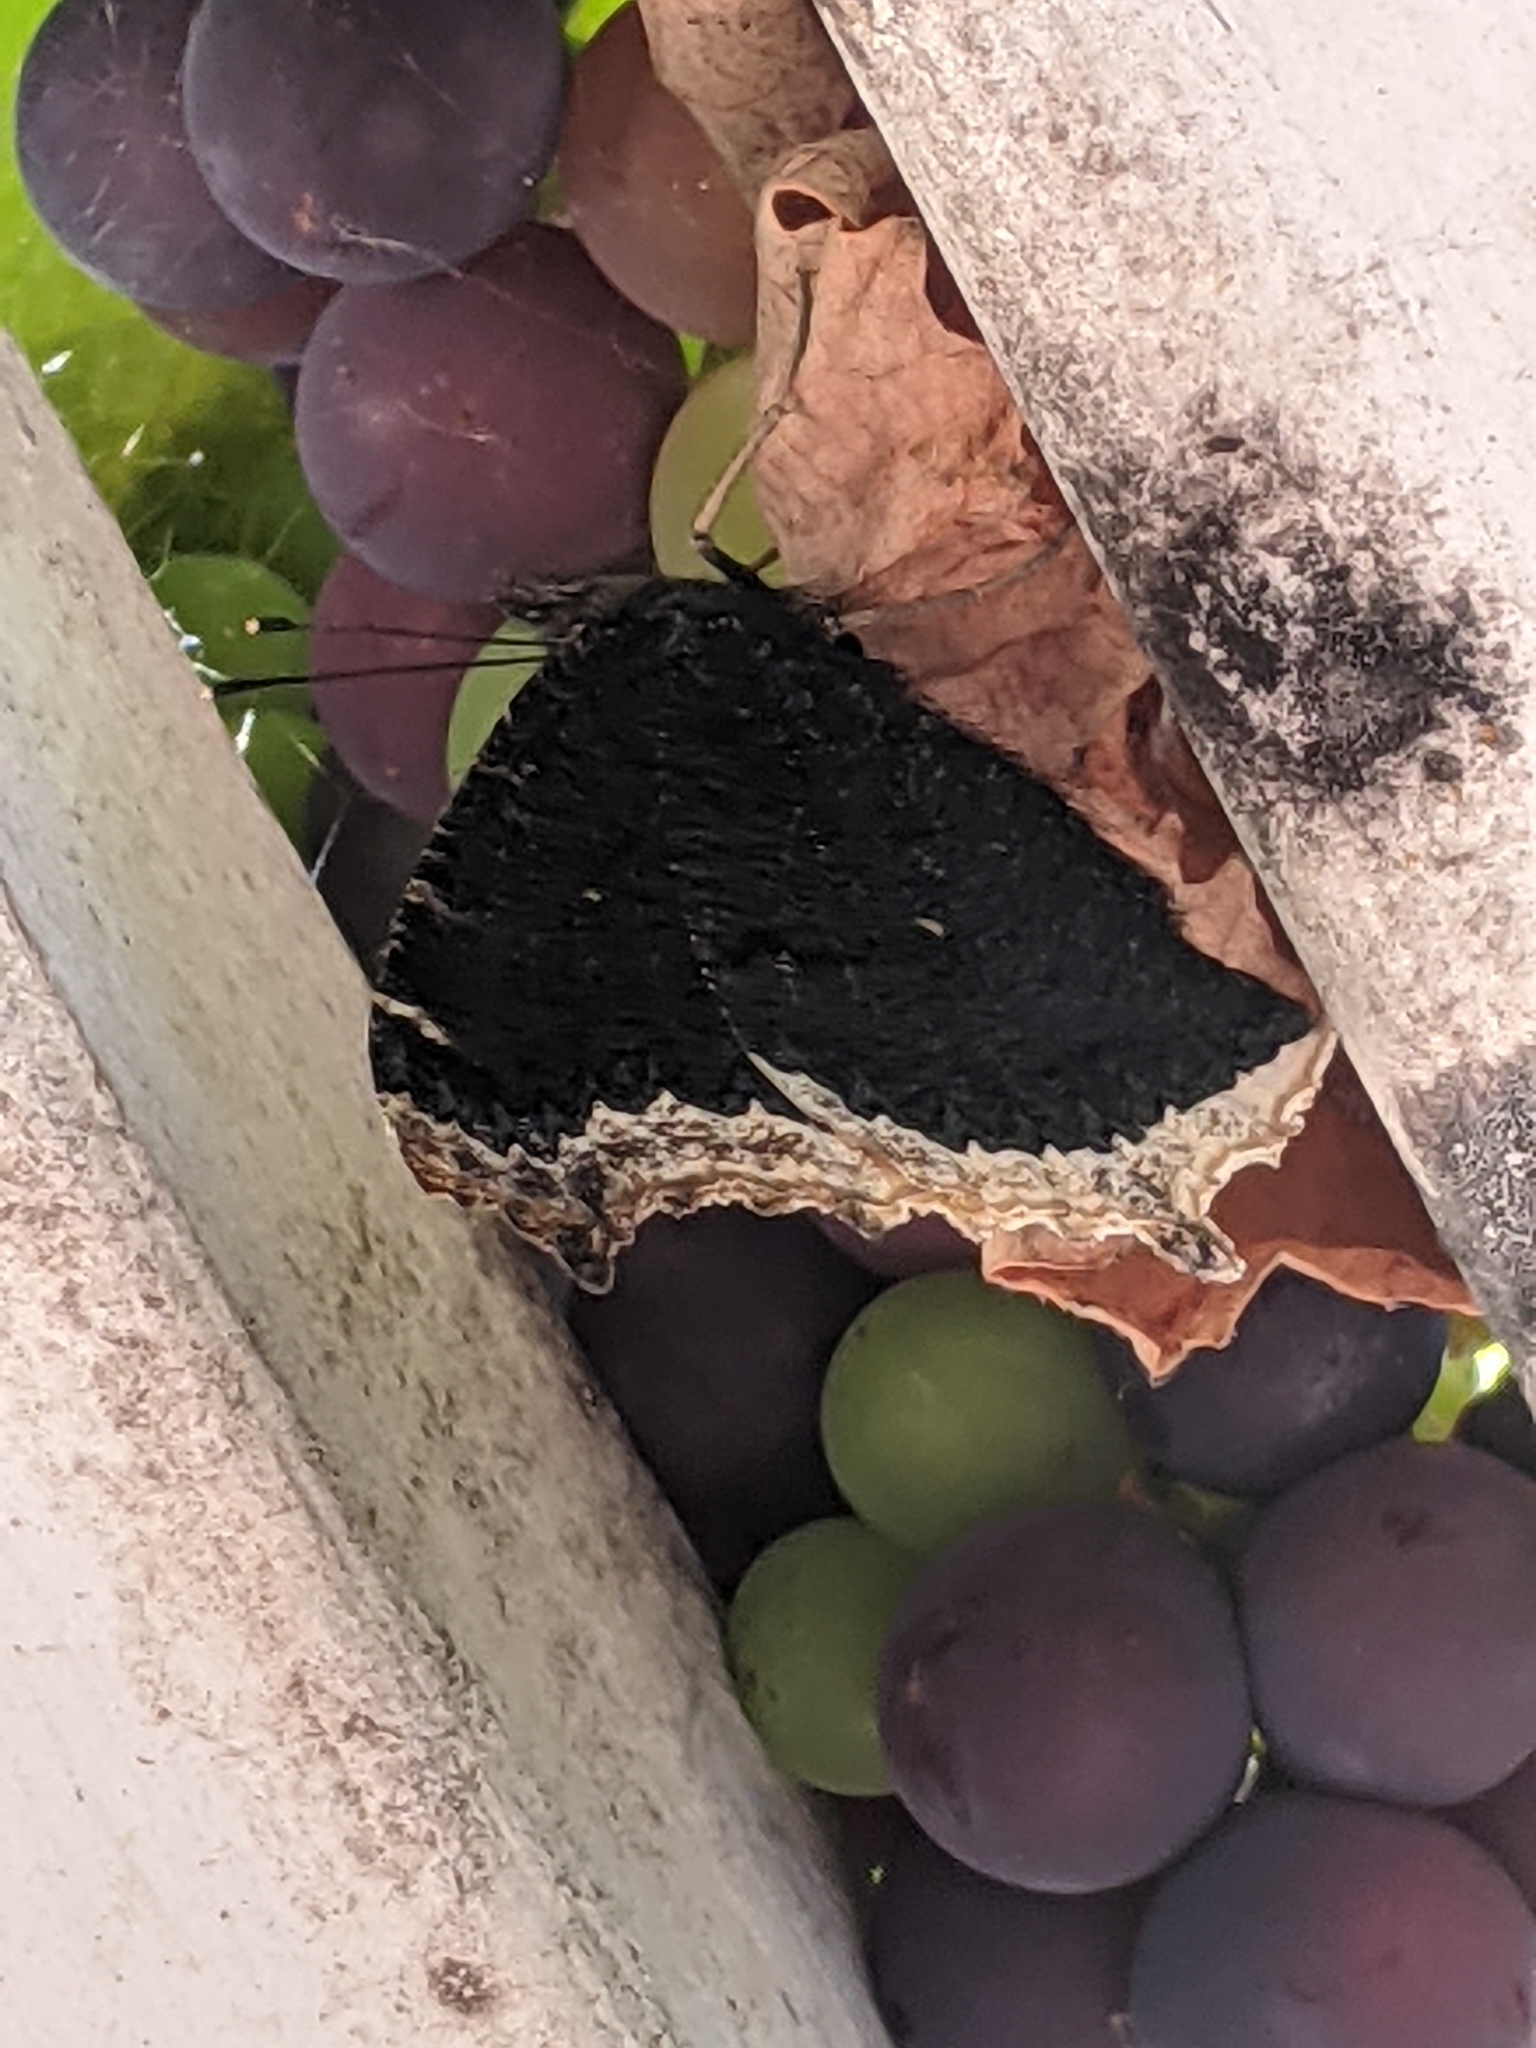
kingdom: Animalia
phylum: Arthropoda
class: Insecta
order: Lepidoptera
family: Nymphalidae
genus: Nymphalis
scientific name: Nymphalis antiopa
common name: Camberwell beauty
